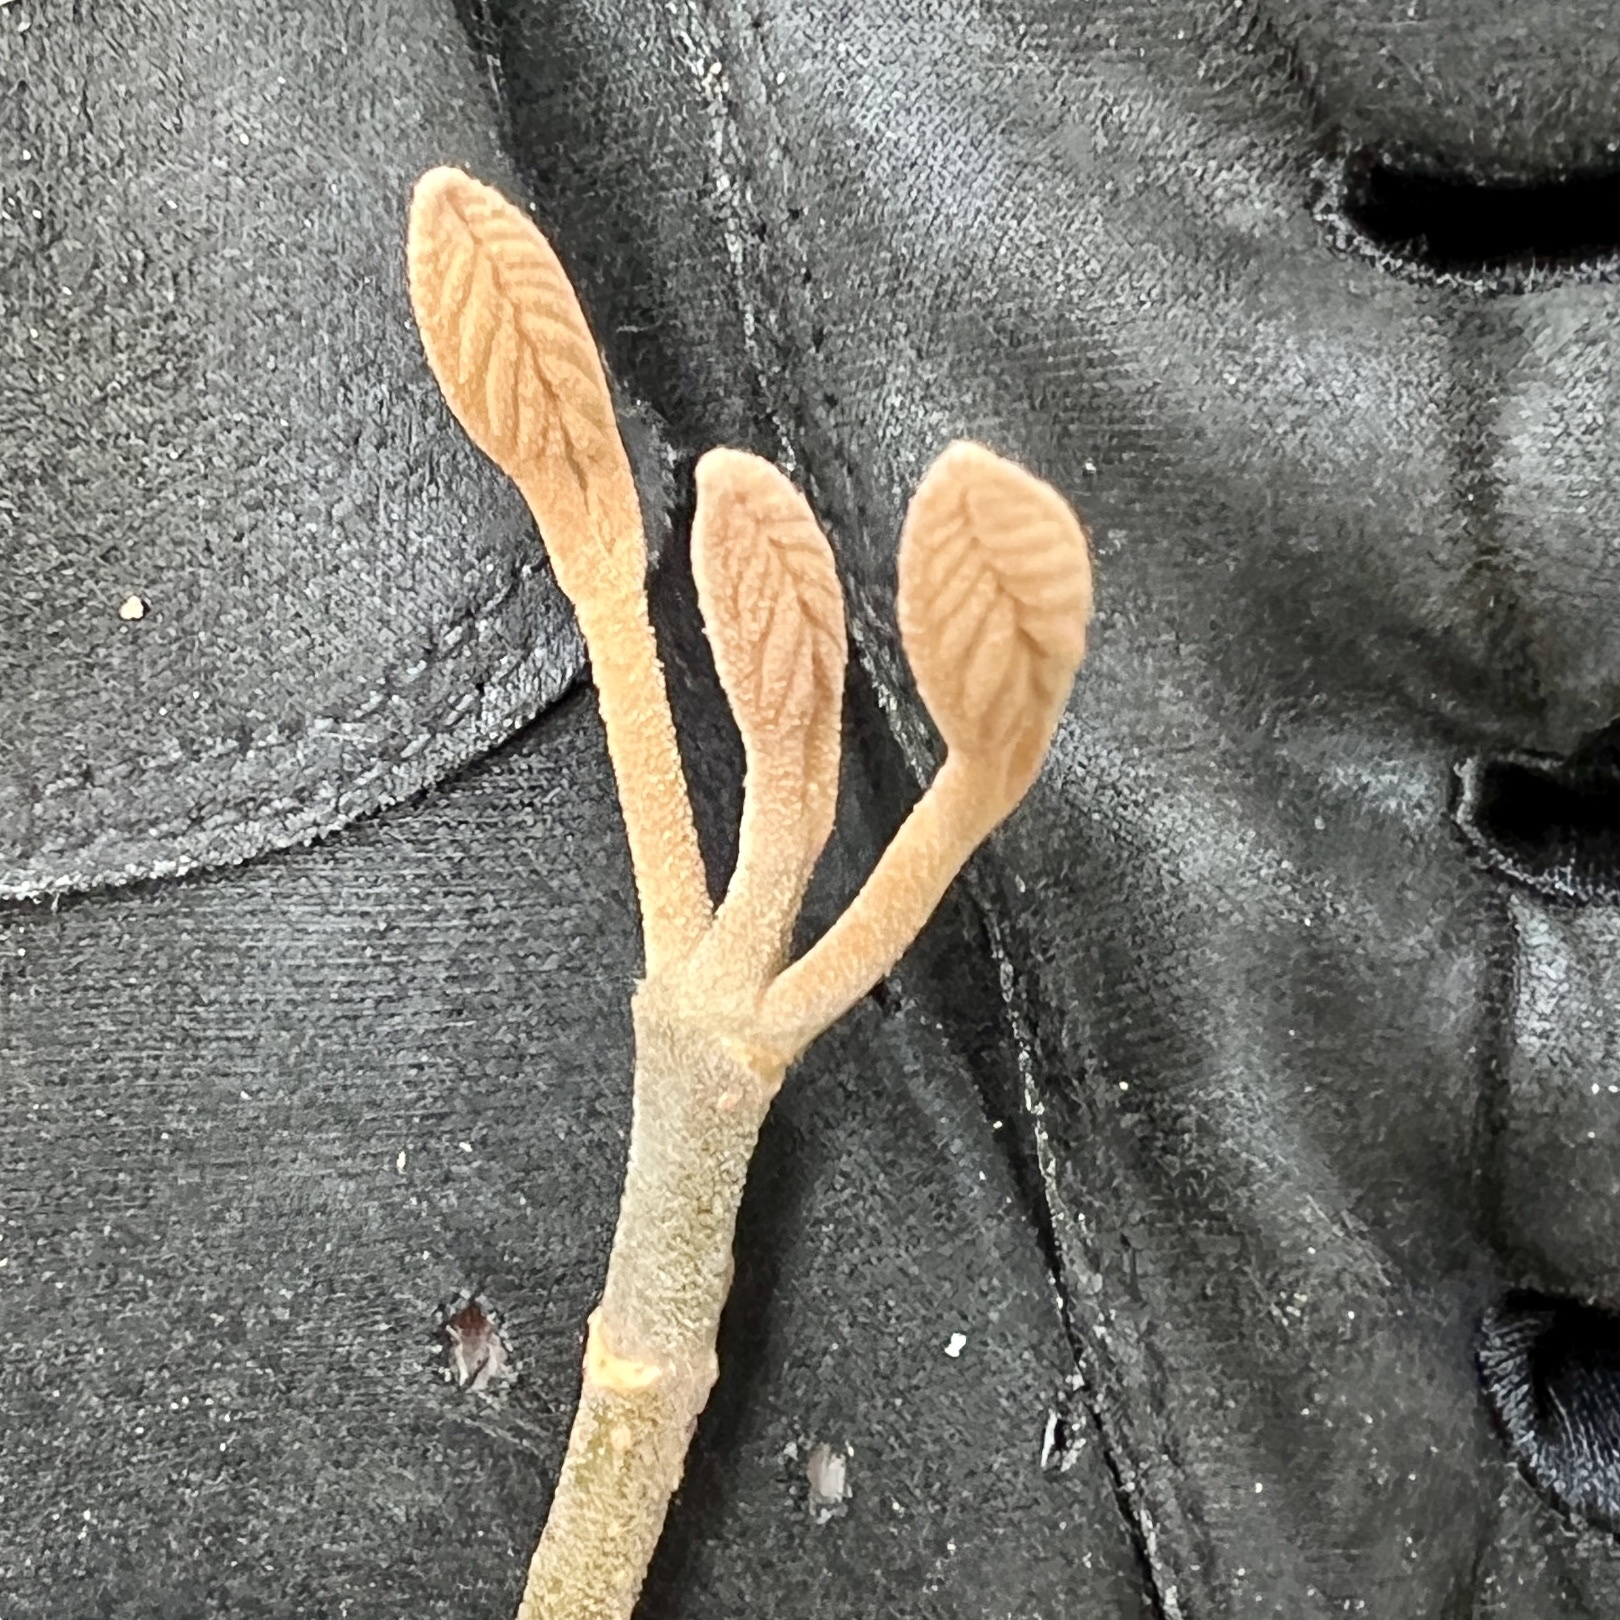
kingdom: Plantae
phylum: Tracheophyta
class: Magnoliopsida
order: Dipsacales
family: Viburnaceae
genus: Viburnum
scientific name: Viburnum lantanoides
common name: Hobblebush
